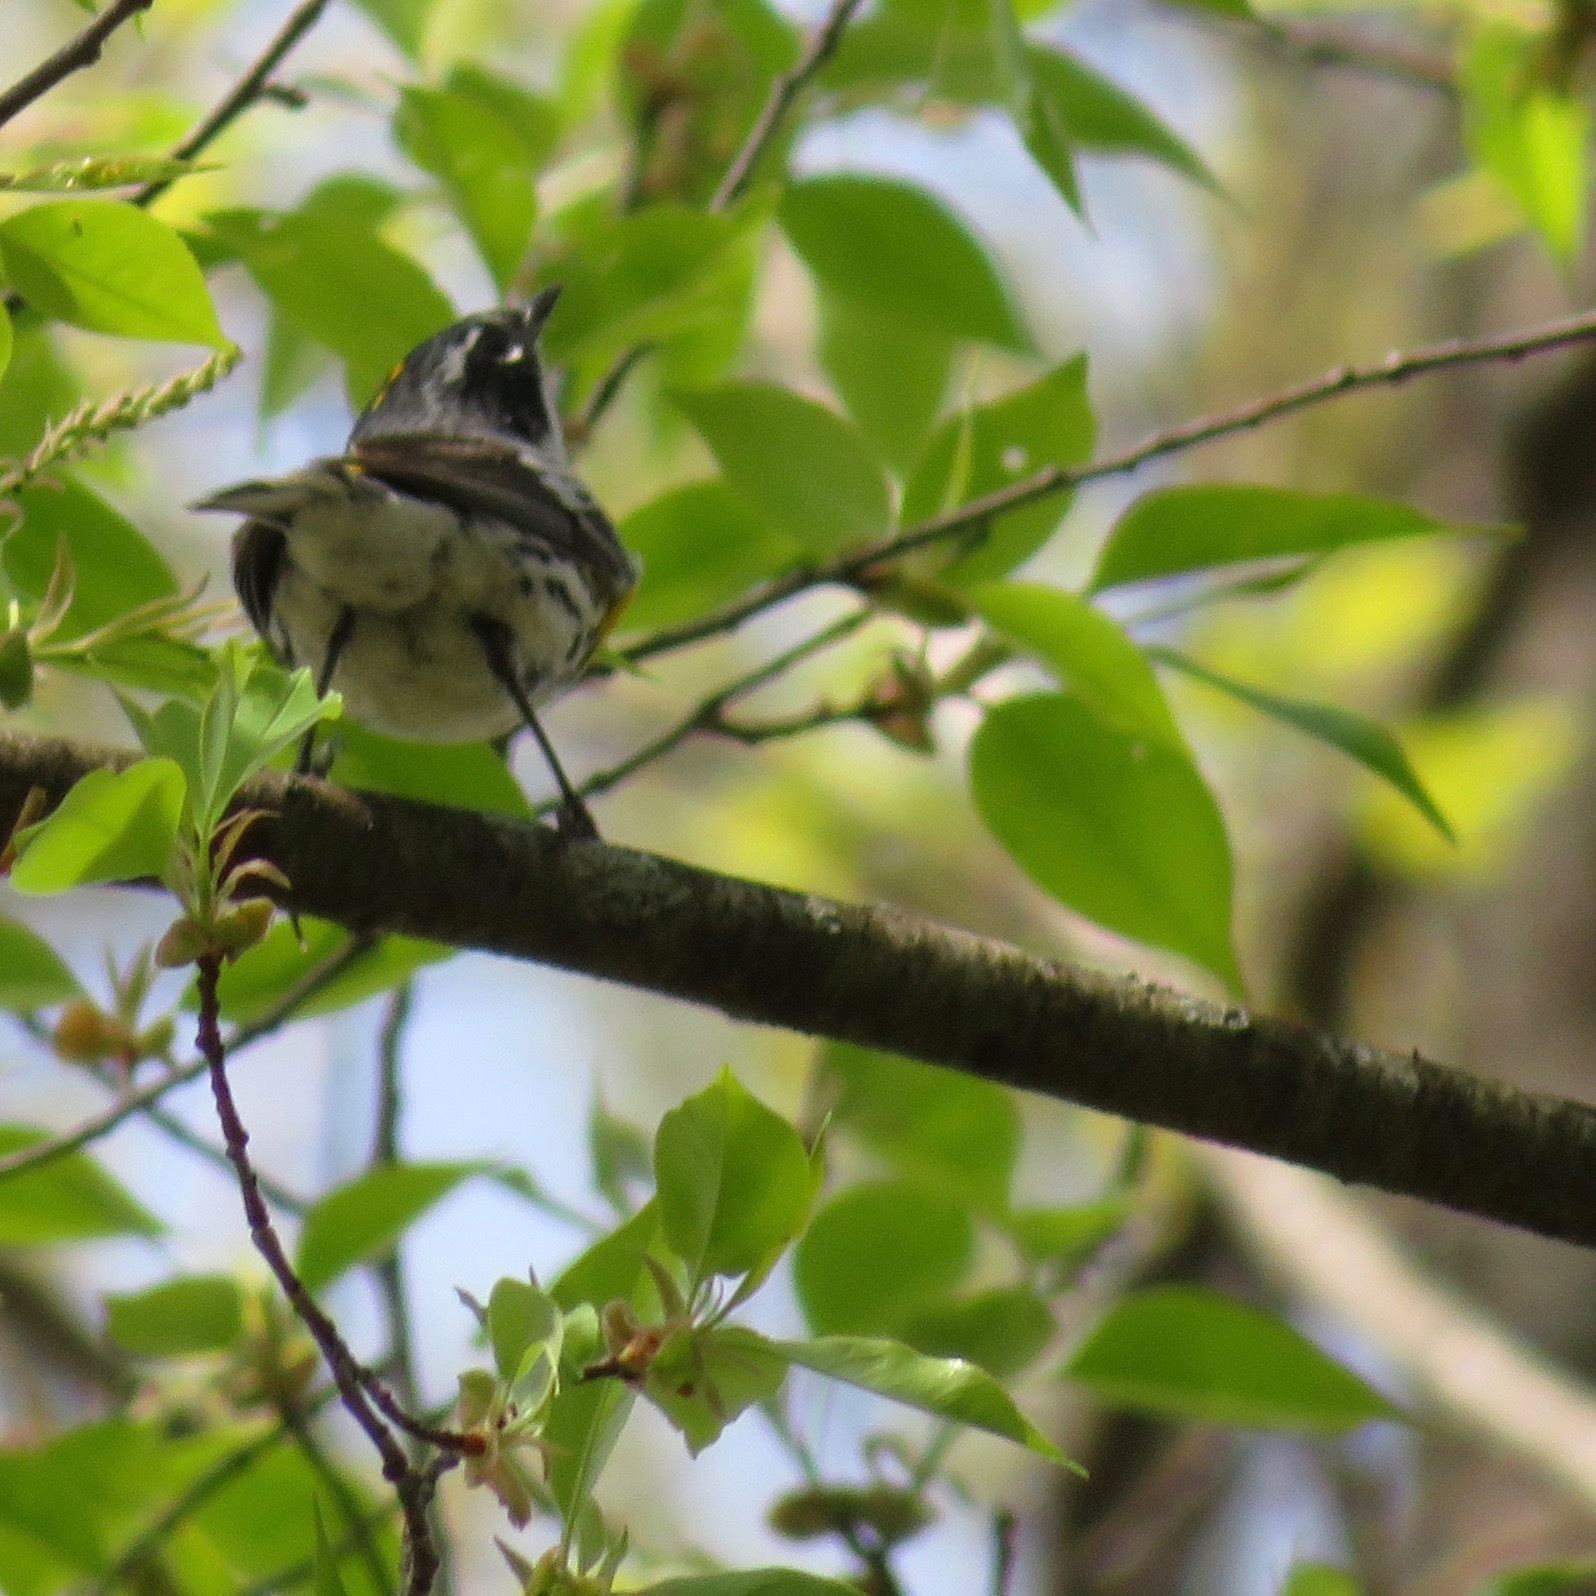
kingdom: Animalia
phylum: Chordata
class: Aves
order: Passeriformes
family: Parulidae
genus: Setophaga
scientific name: Setophaga coronata
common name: Myrtle warbler
